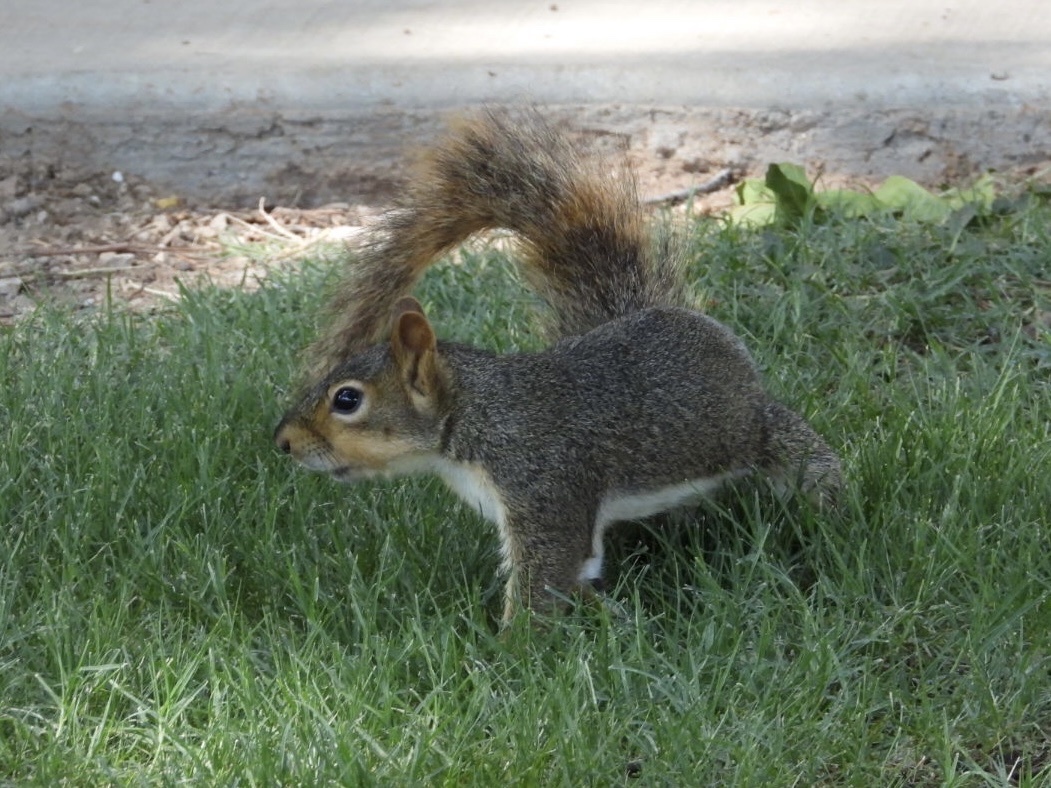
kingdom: Animalia
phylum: Chordata
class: Mammalia
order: Rodentia
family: Sciuridae
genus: Sciurus
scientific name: Sciurus niger
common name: Fox squirrel
